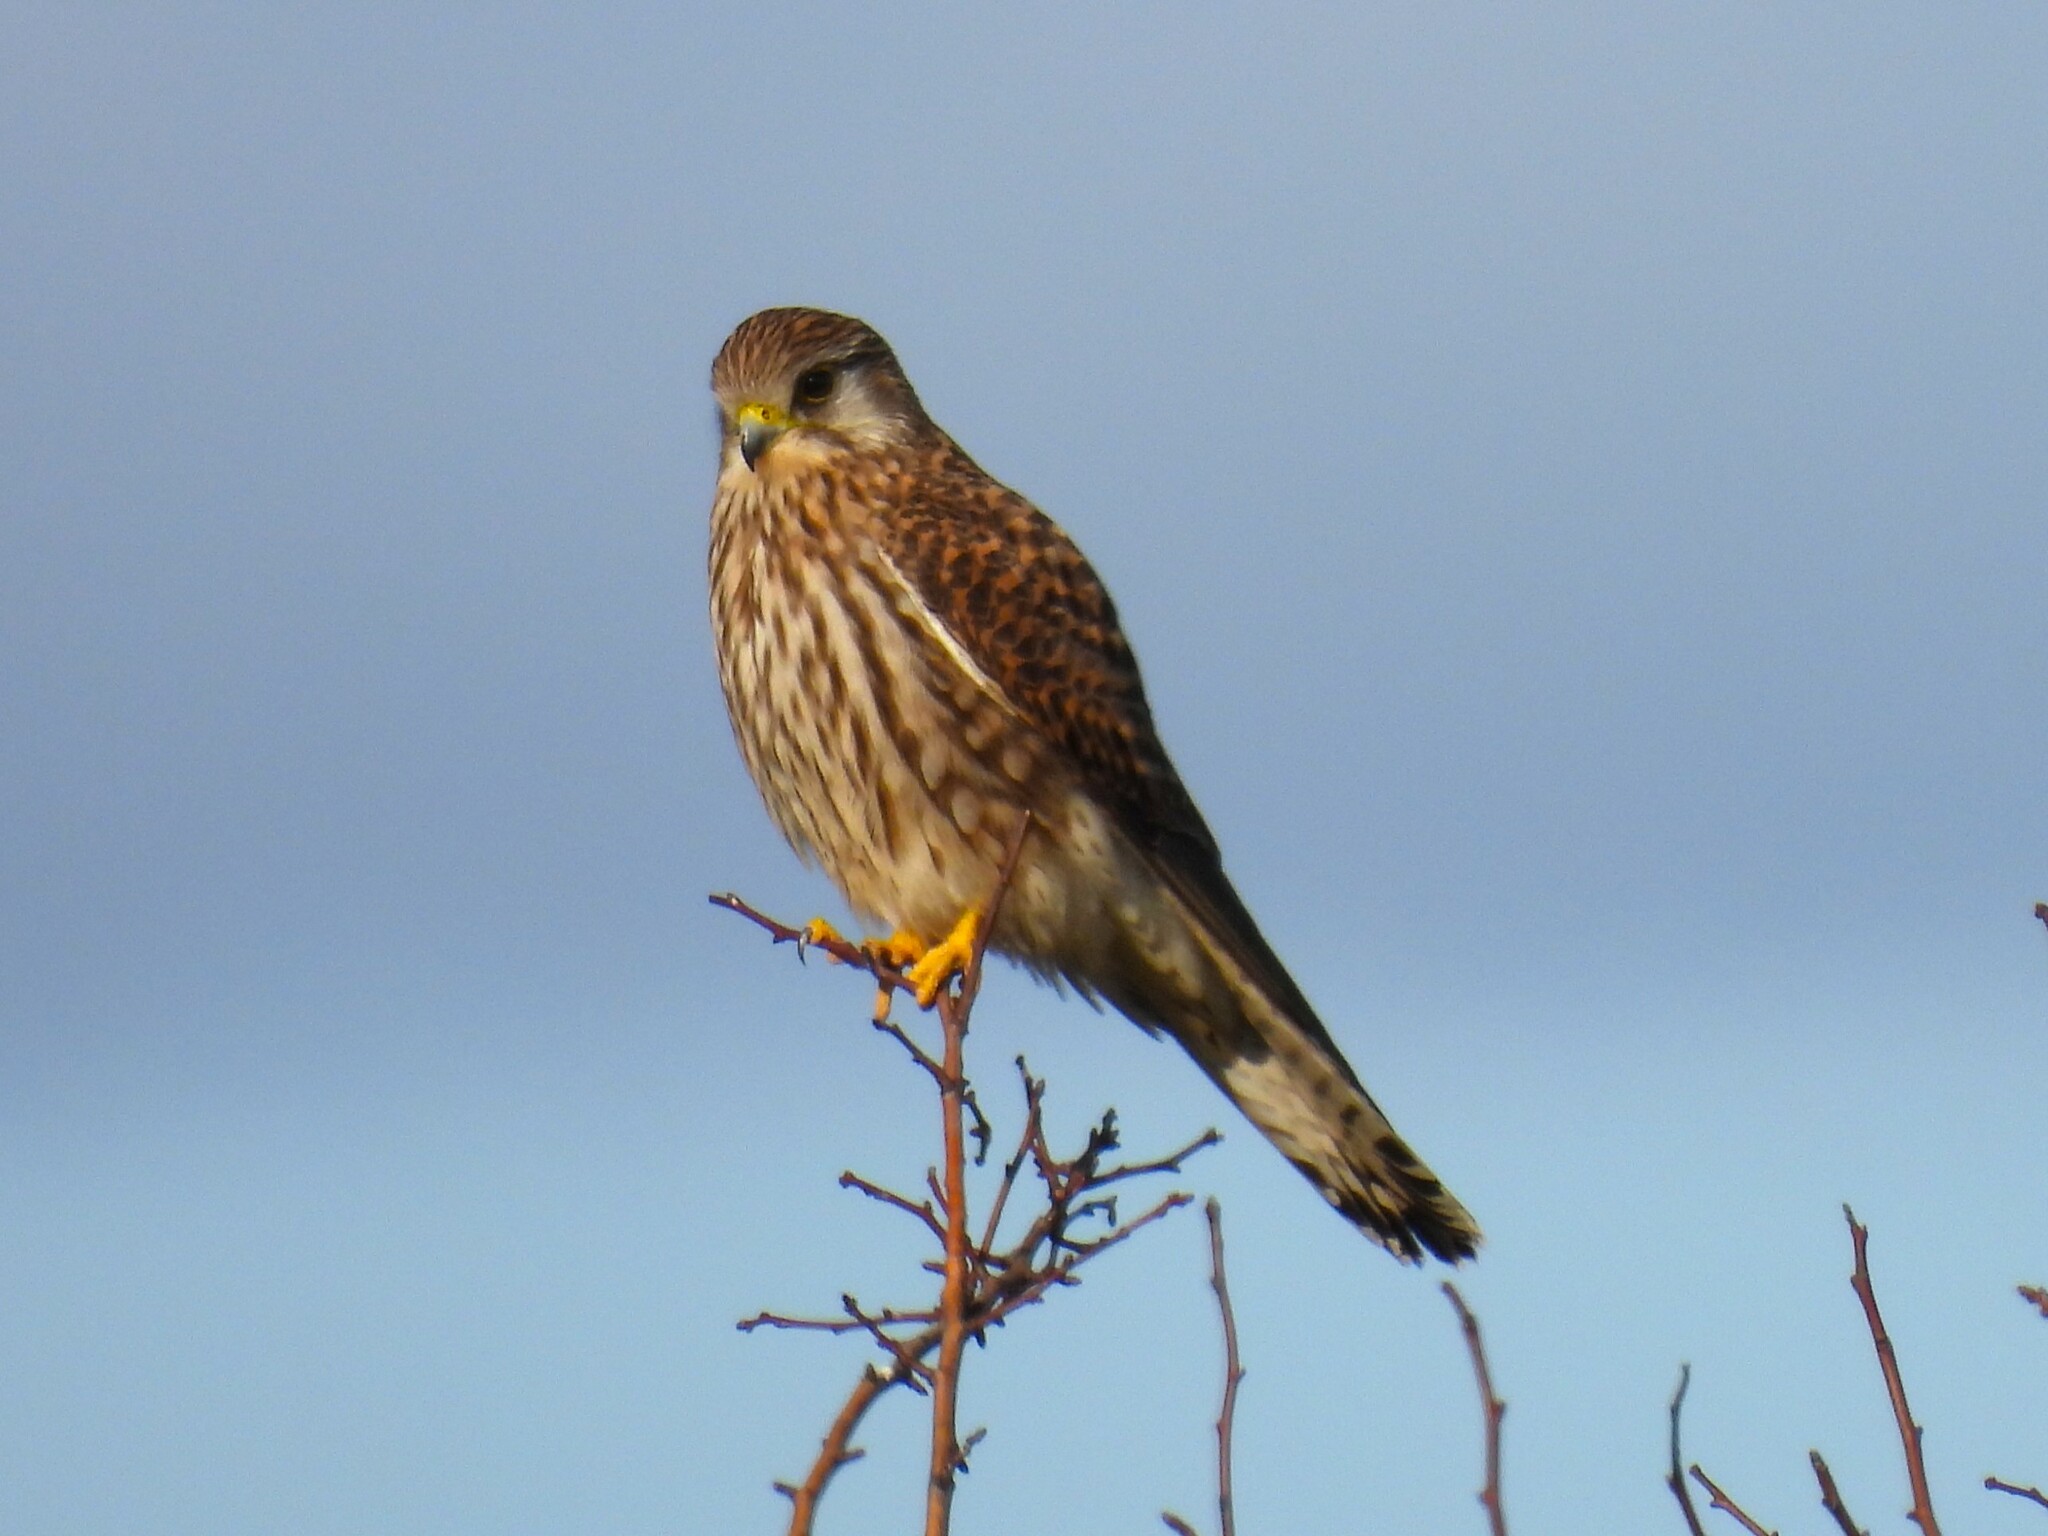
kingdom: Animalia
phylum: Chordata
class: Aves
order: Falconiformes
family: Falconidae
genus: Falco
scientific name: Falco tinnunculus
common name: Common kestrel
